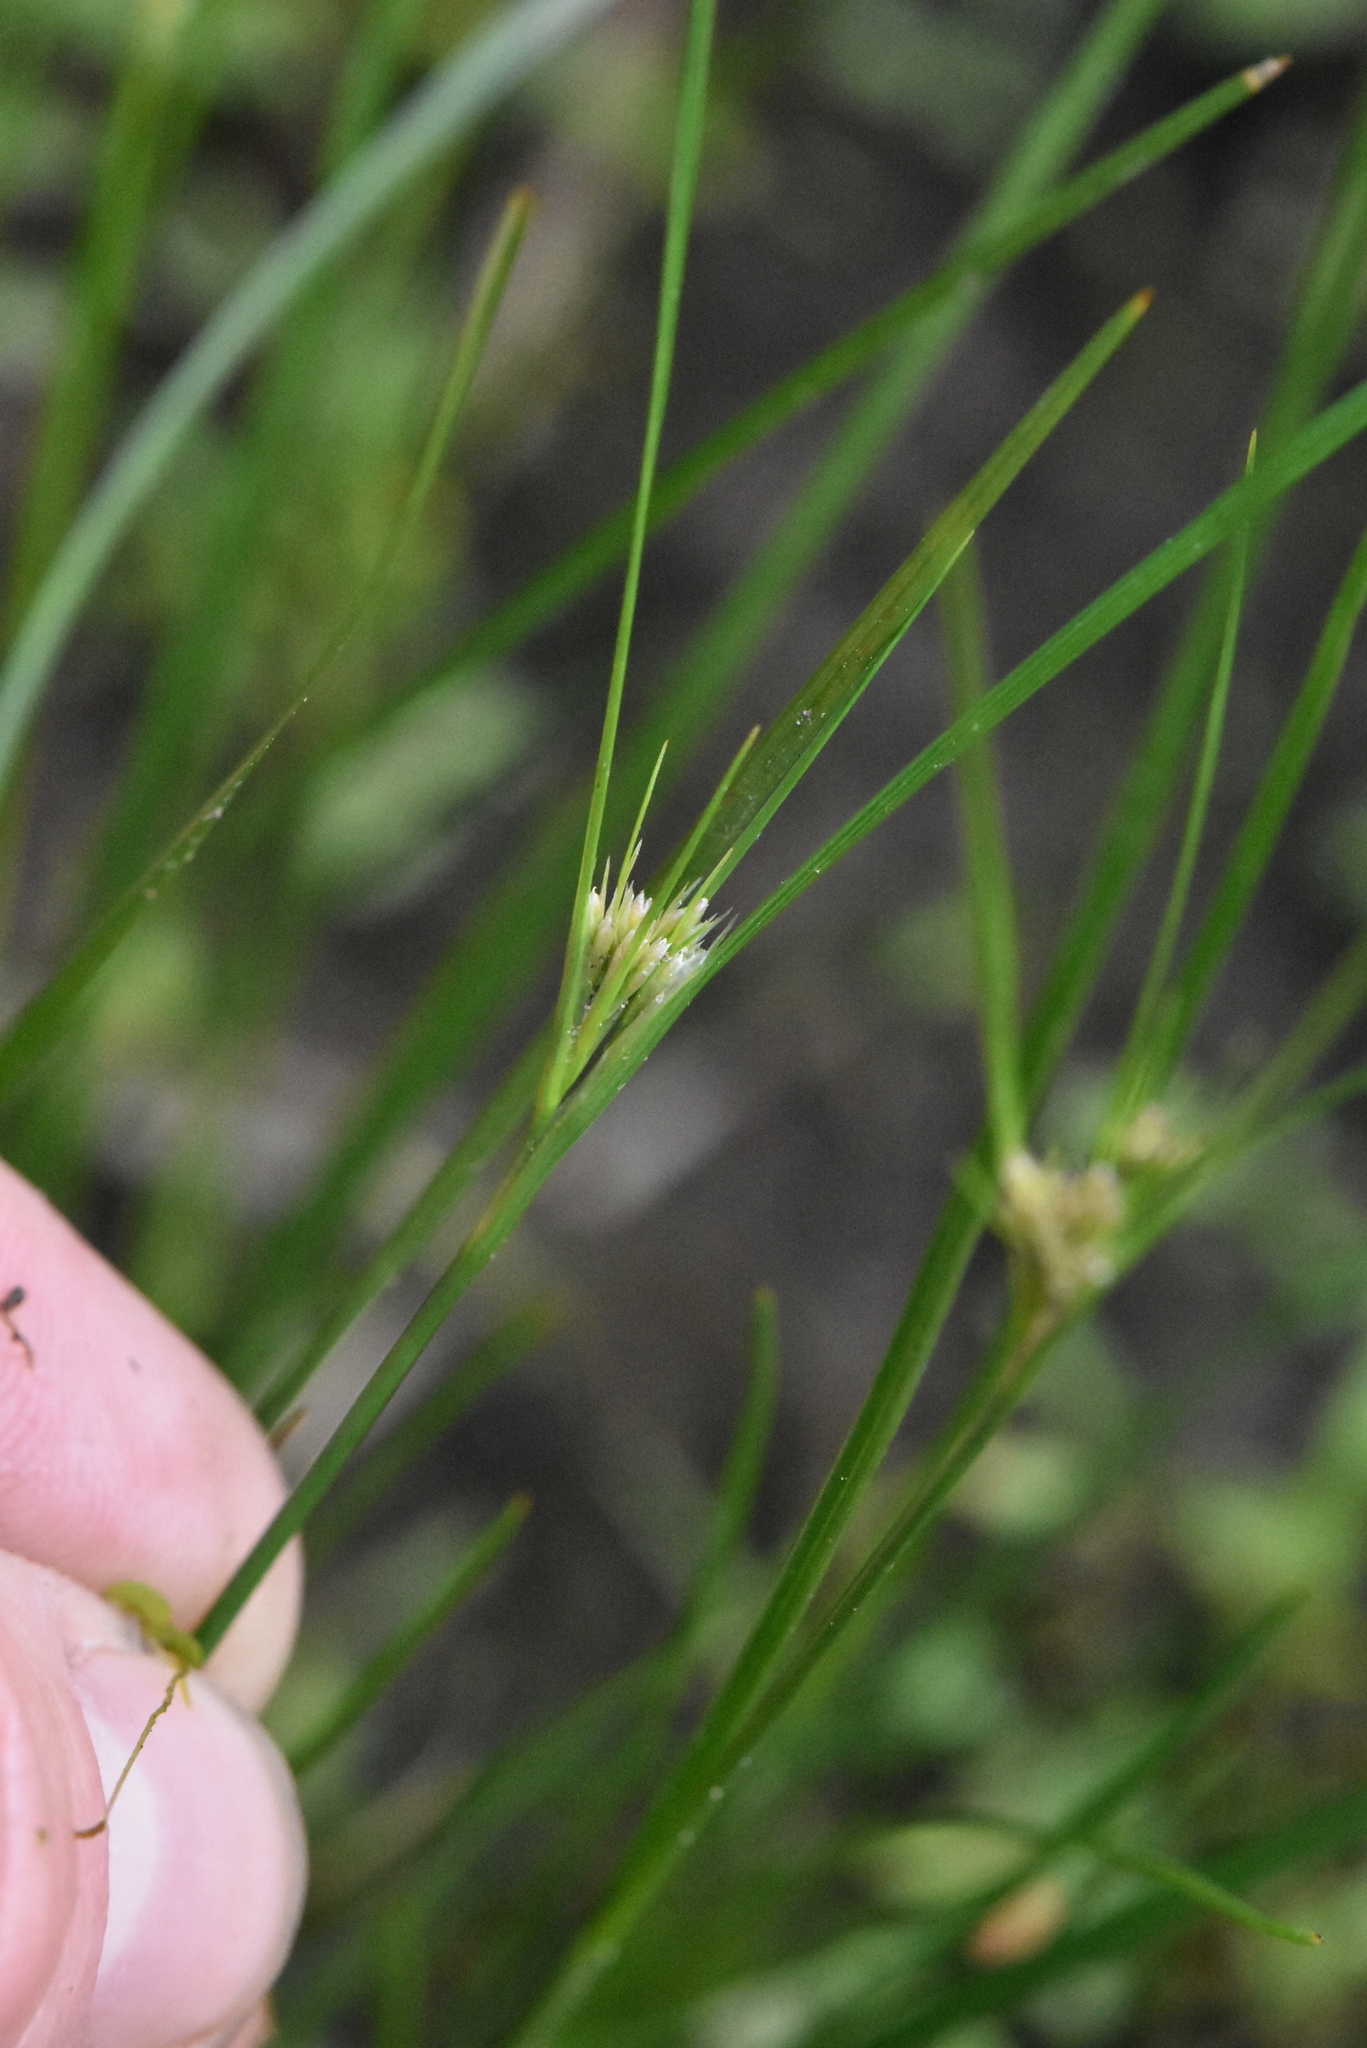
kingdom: Plantae
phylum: Tracheophyta
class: Liliopsida
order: Poales
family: Juncaceae
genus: Juncus
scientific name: Juncus compressus
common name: Round-fruited rush
